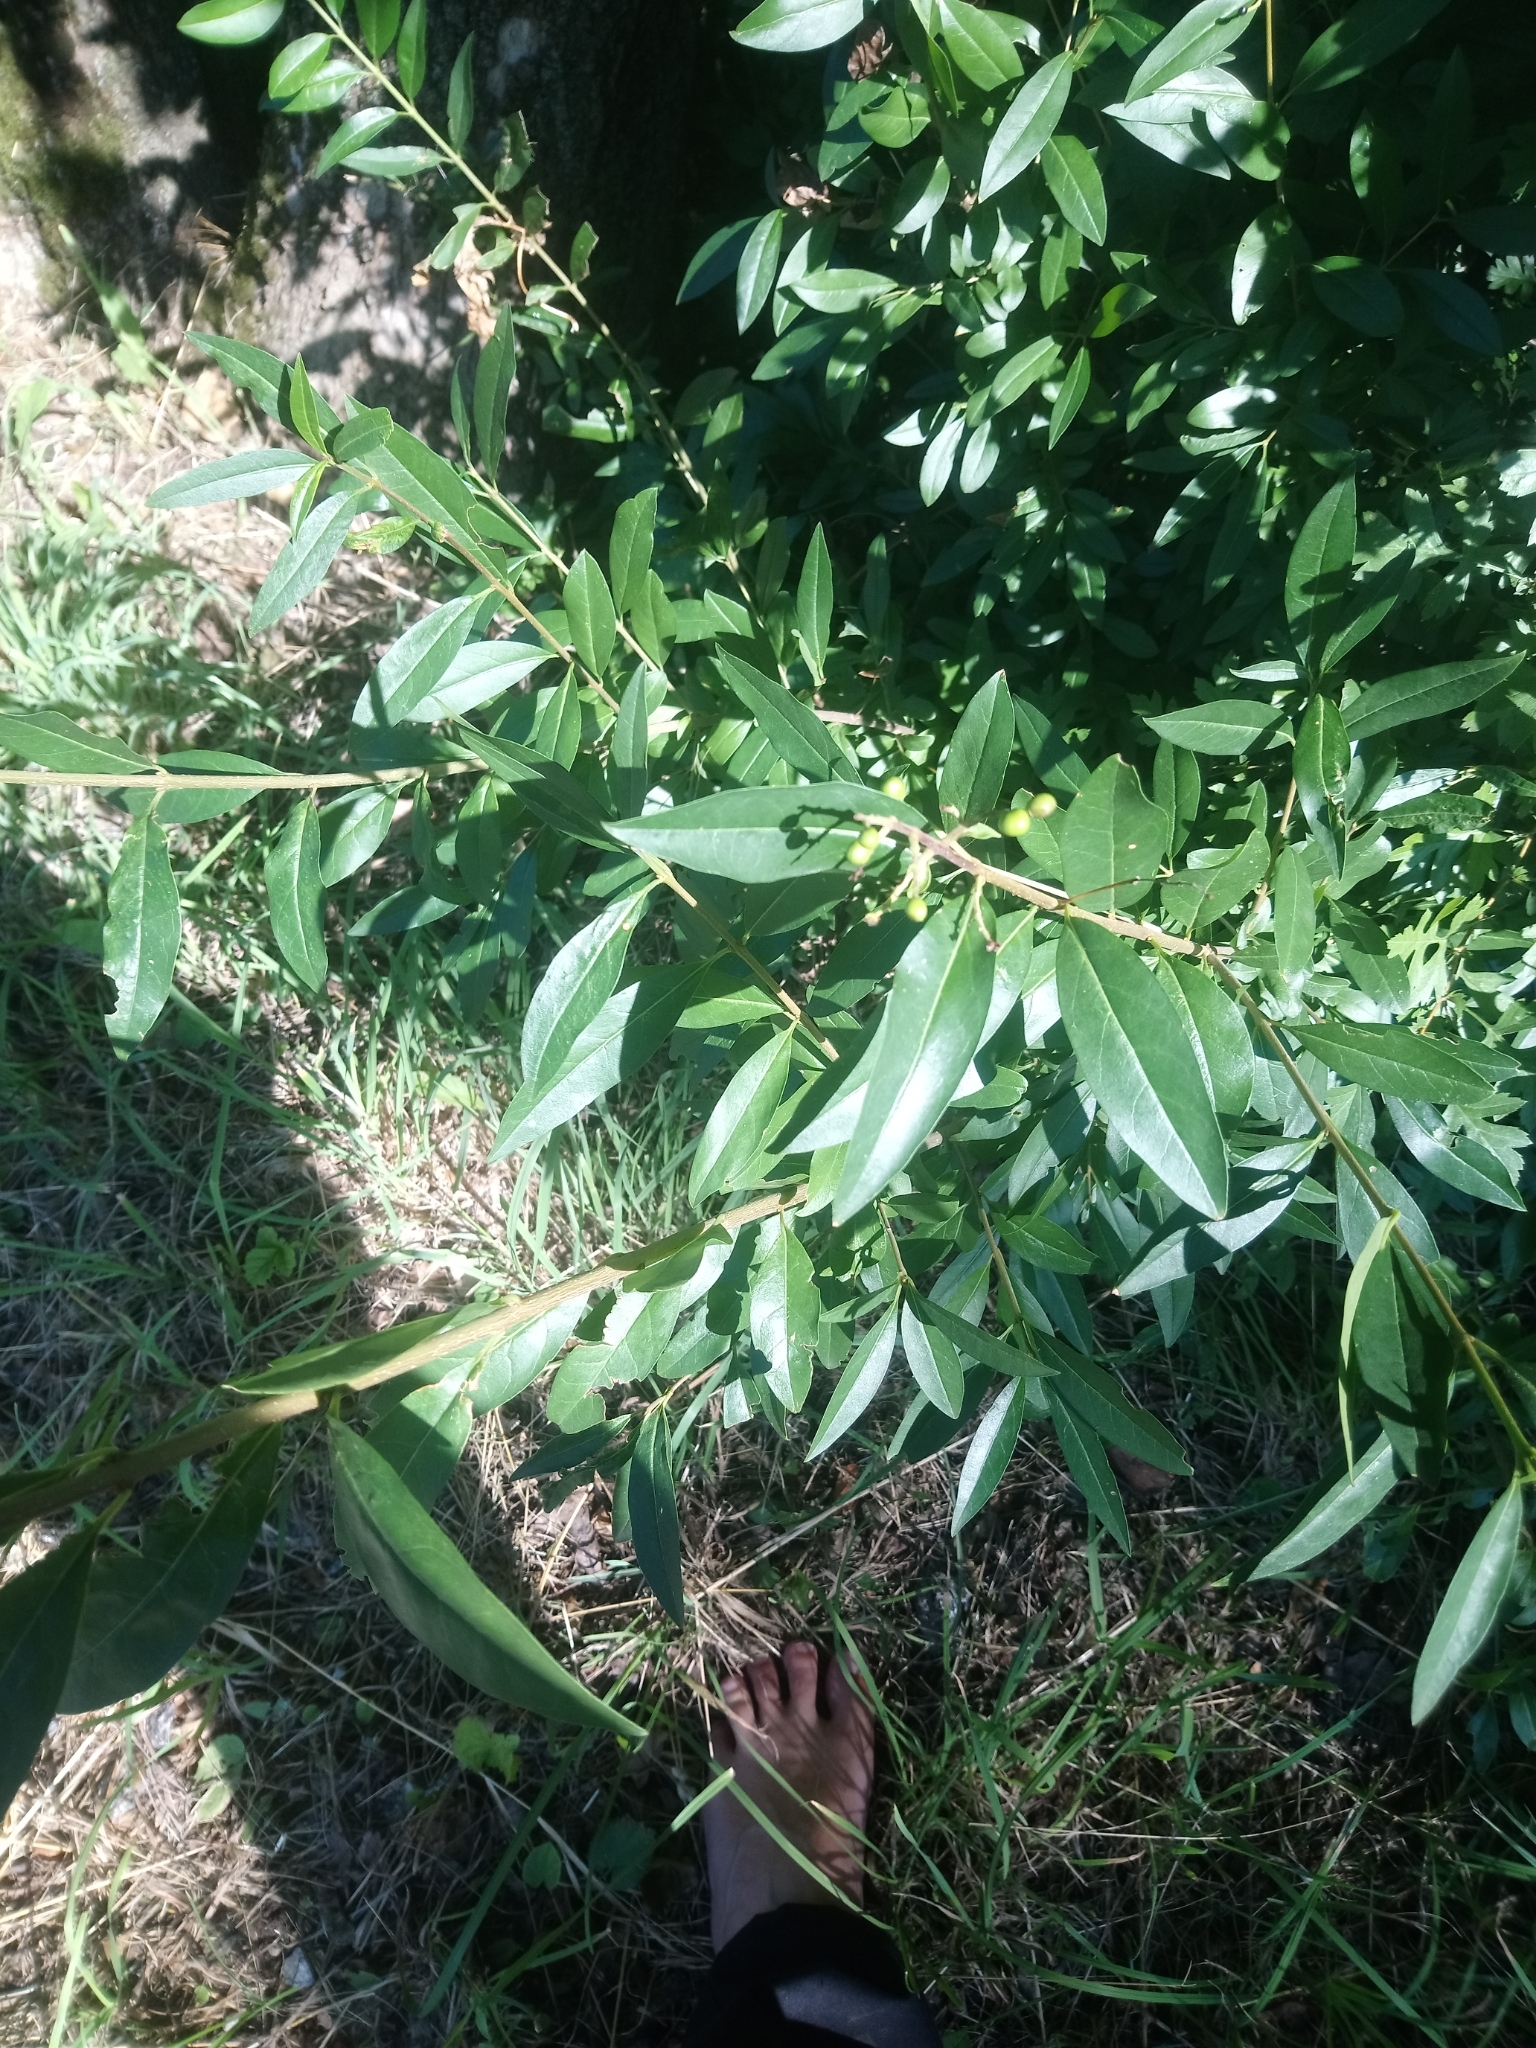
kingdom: Plantae
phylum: Tracheophyta
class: Magnoliopsida
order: Lamiales
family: Oleaceae
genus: Ligustrum
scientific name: Ligustrum vulgare
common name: Wild privet
